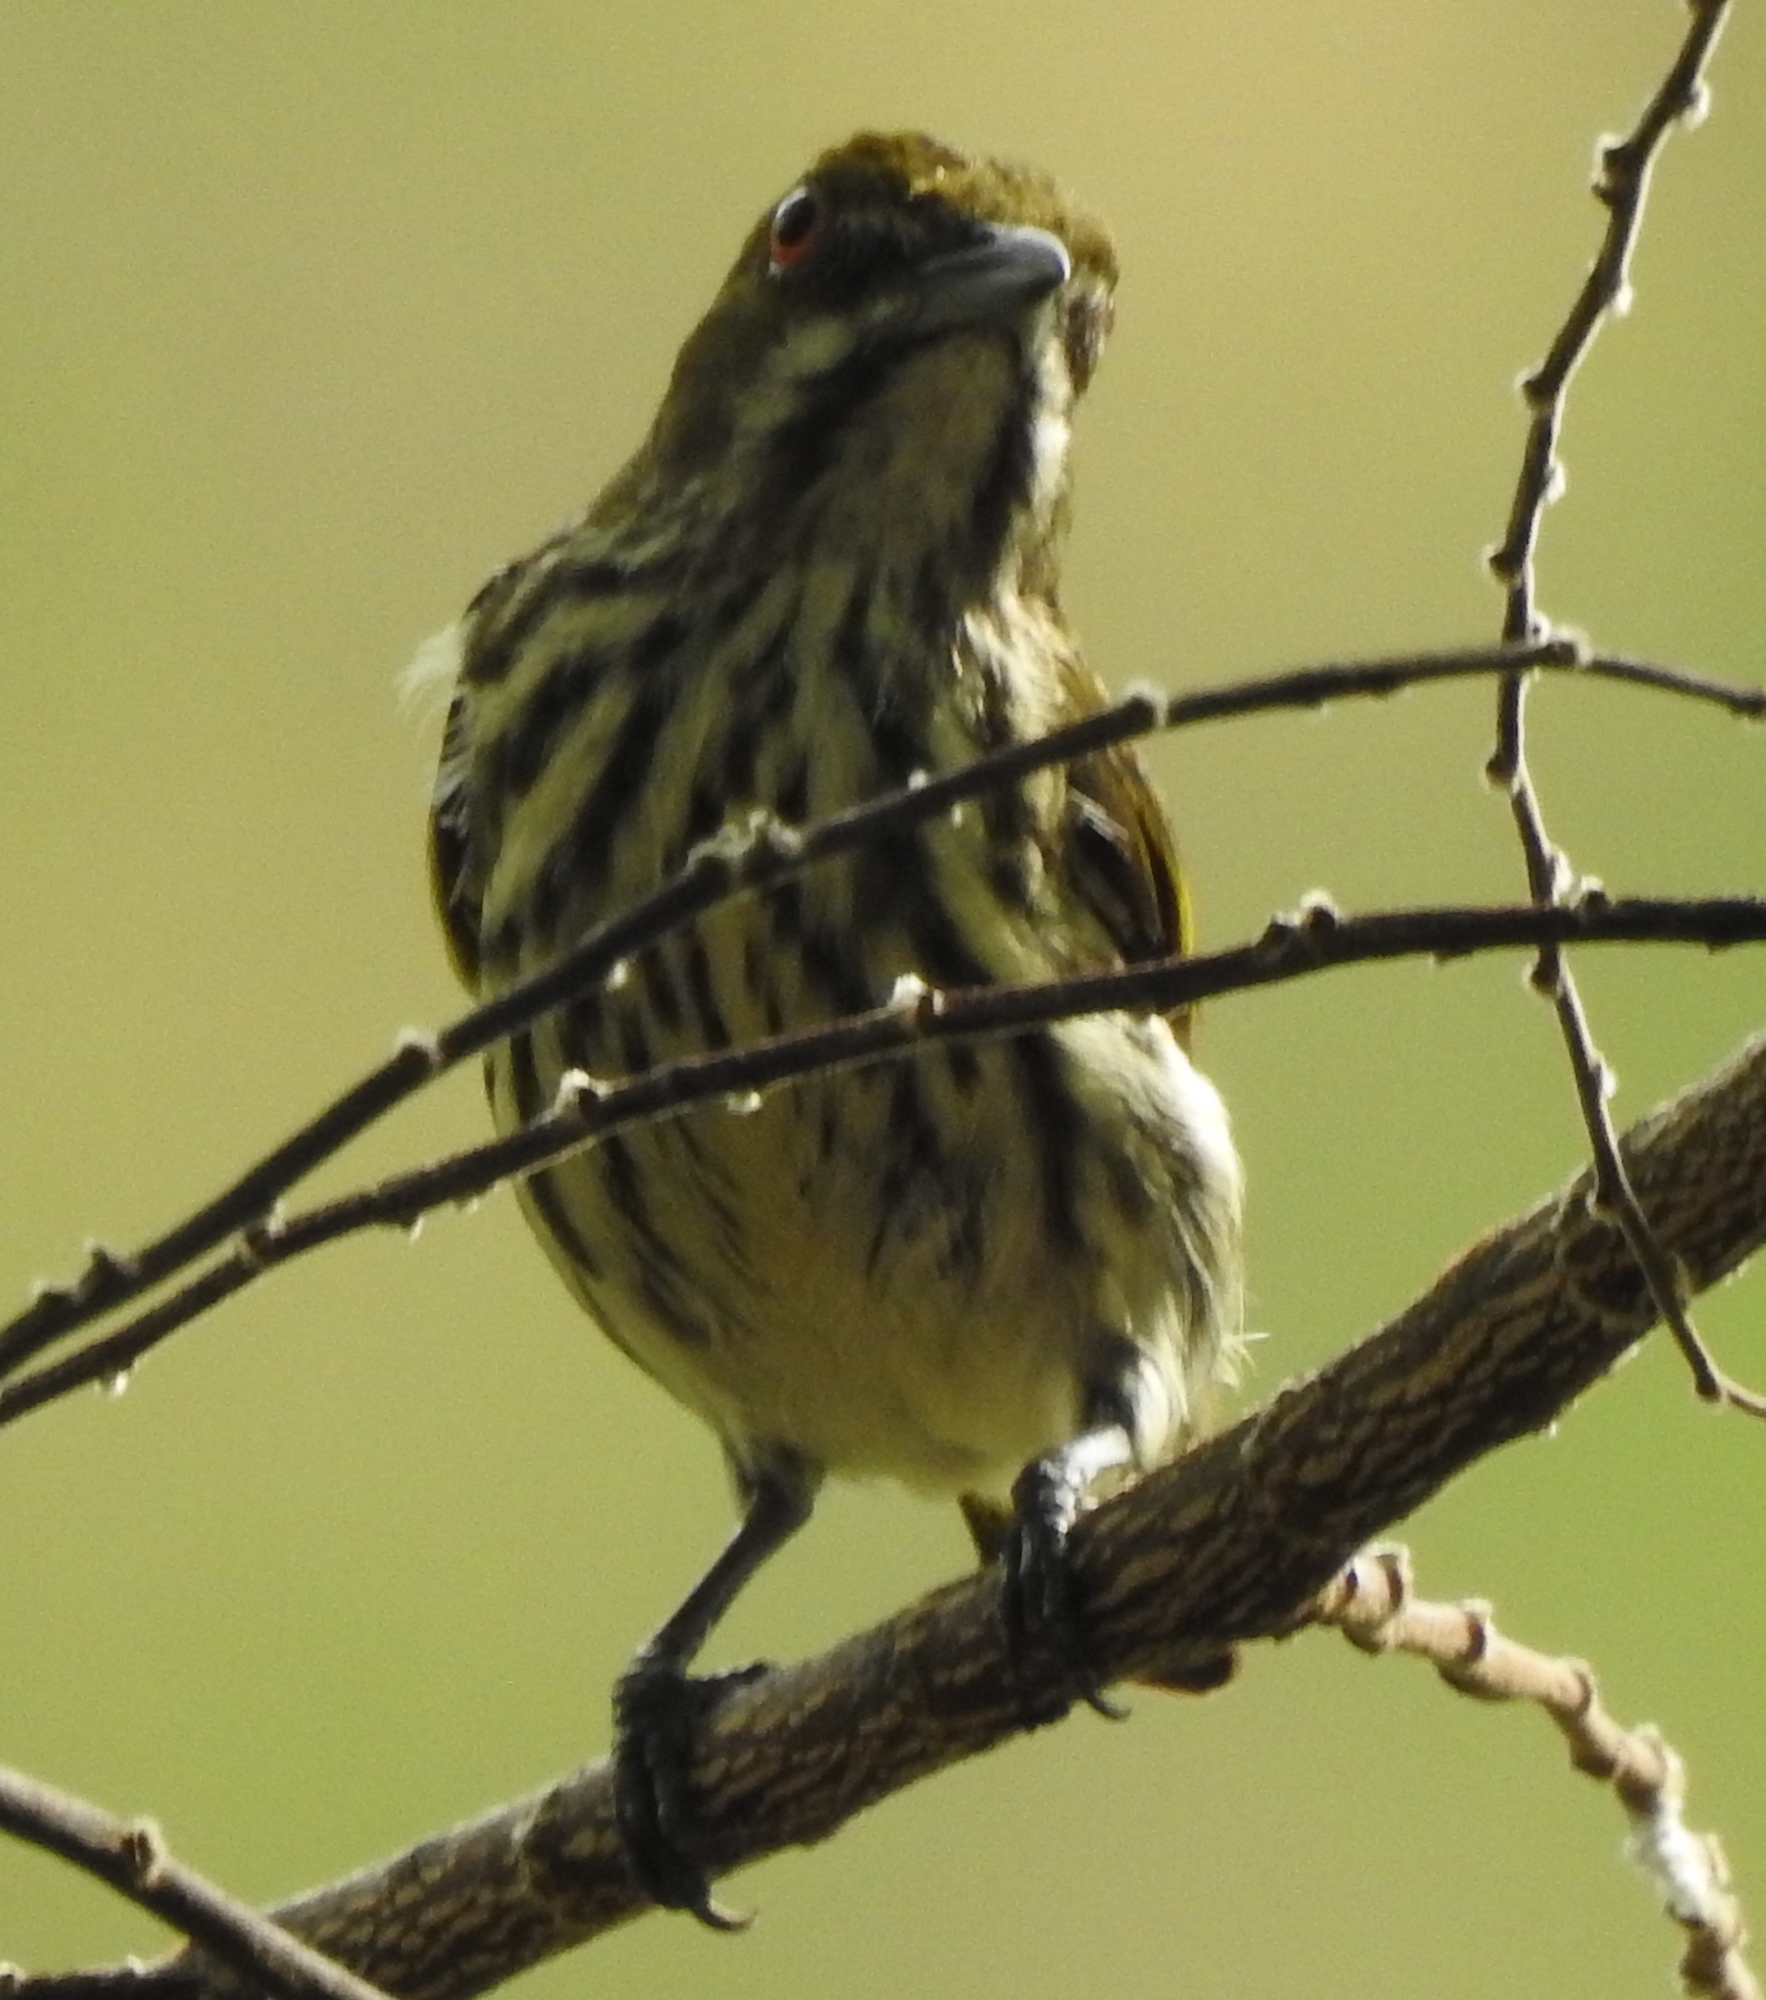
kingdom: Animalia
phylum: Chordata
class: Aves
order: Passeriformes
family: Dicaeidae
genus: Dicaeum
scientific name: Dicaeum chrysorrheum
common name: Yellow-vented flowerpecker
